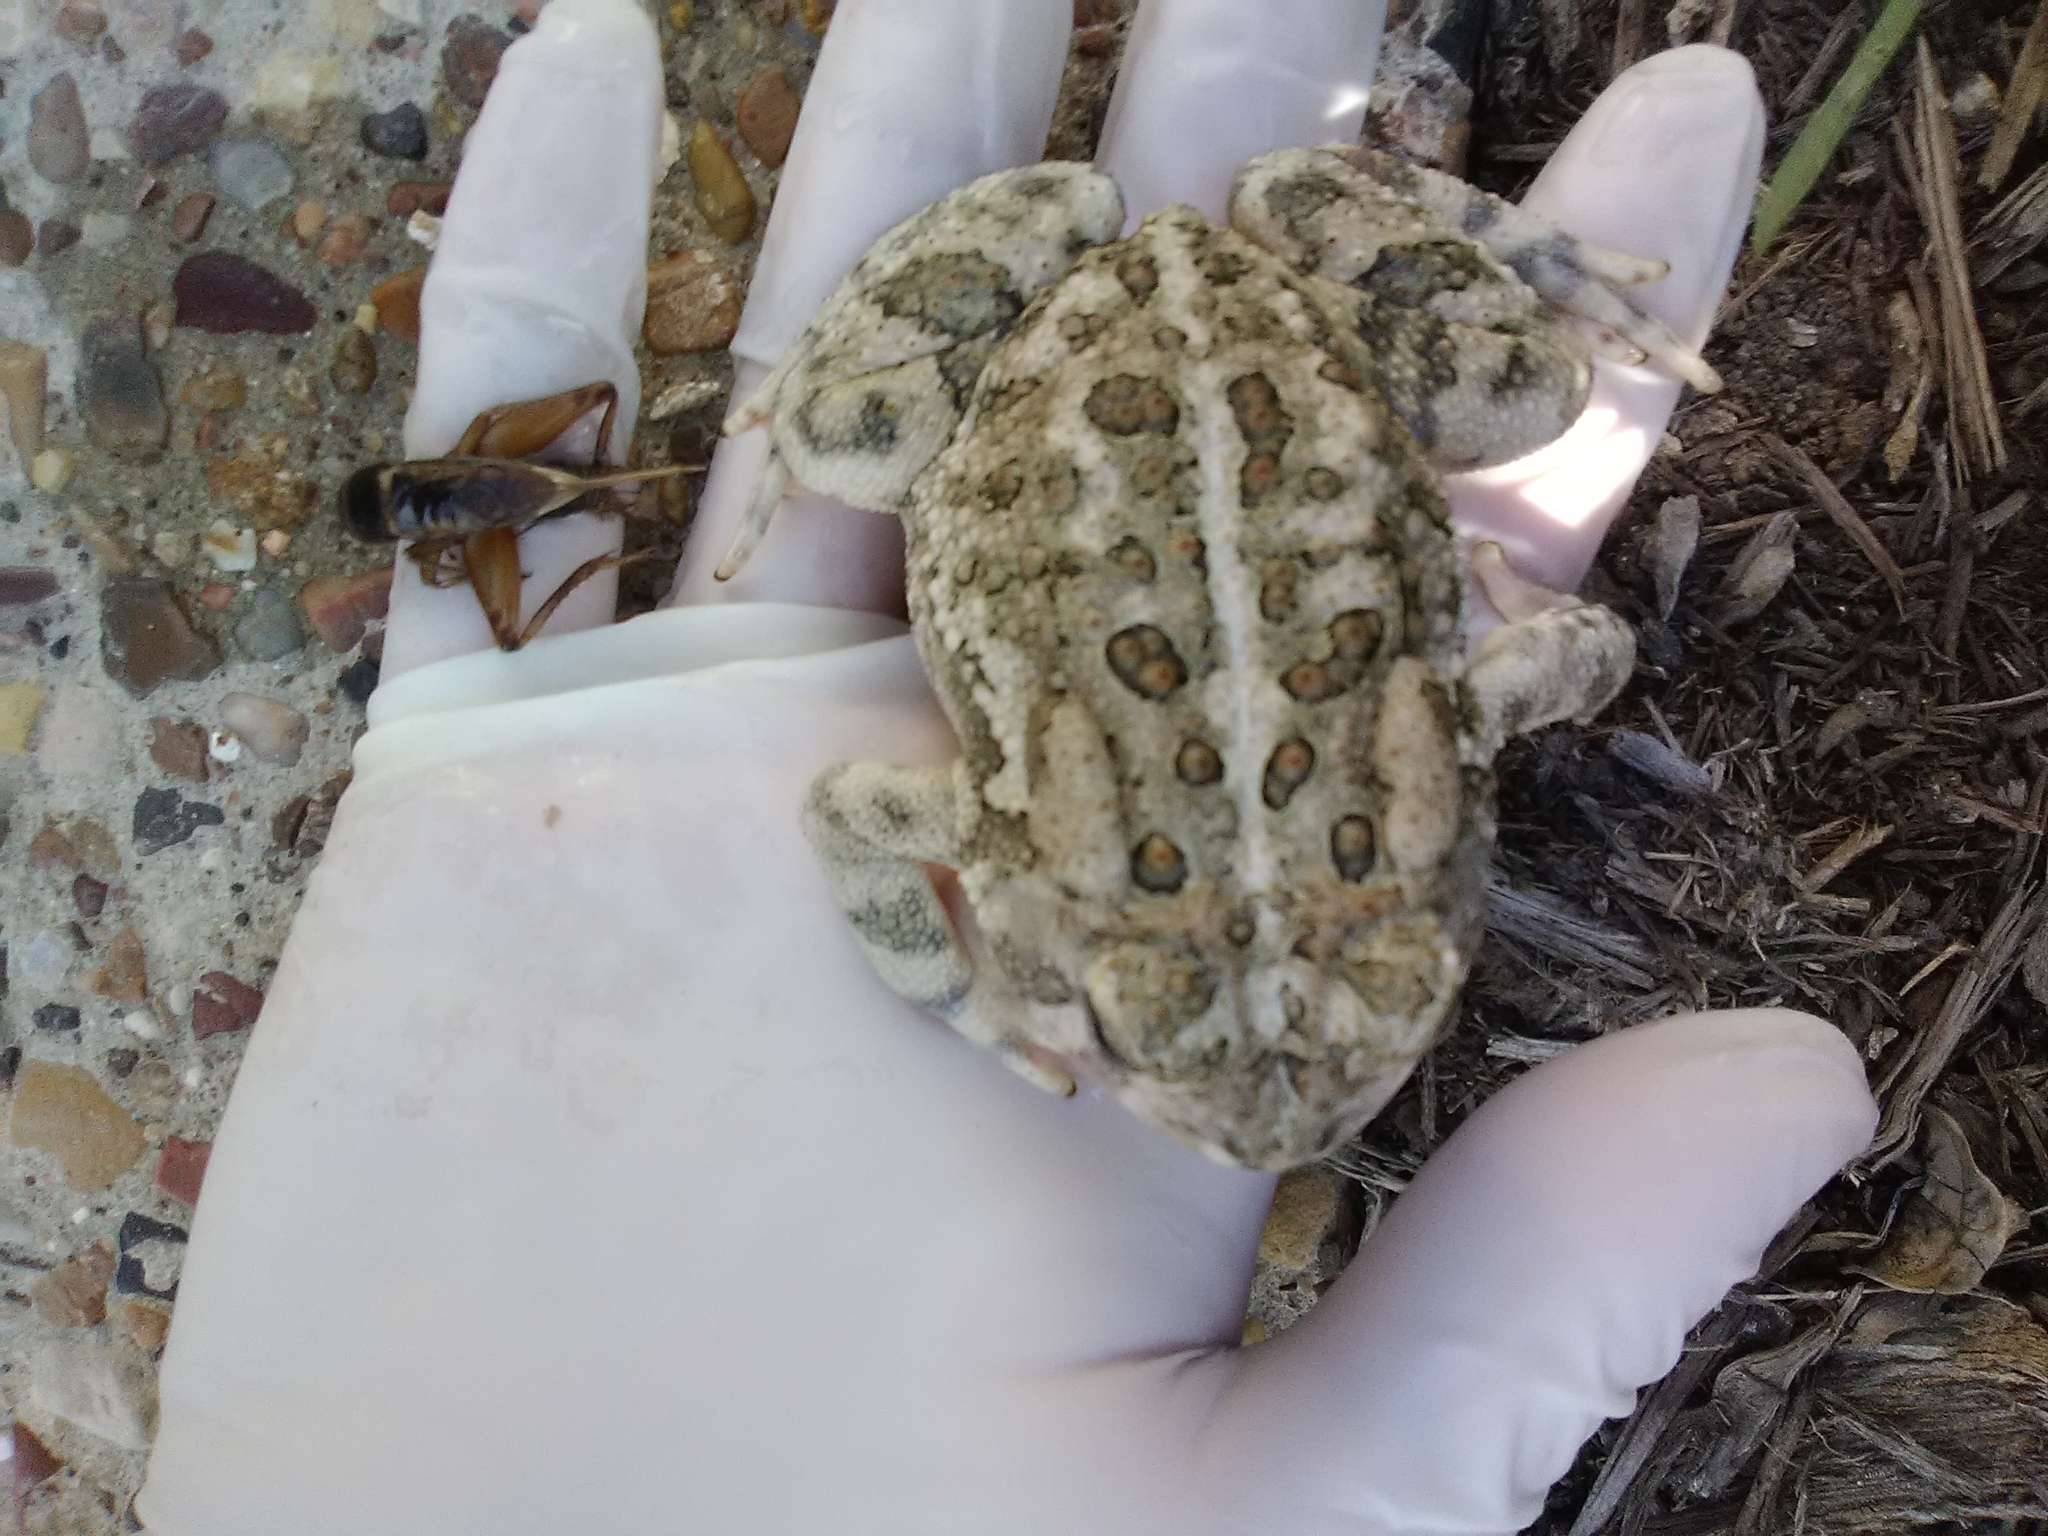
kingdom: Animalia
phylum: Chordata
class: Amphibia
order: Anura
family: Bufonidae
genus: Anaxyrus
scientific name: Anaxyrus woodhousii
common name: Woodhouse's toad
